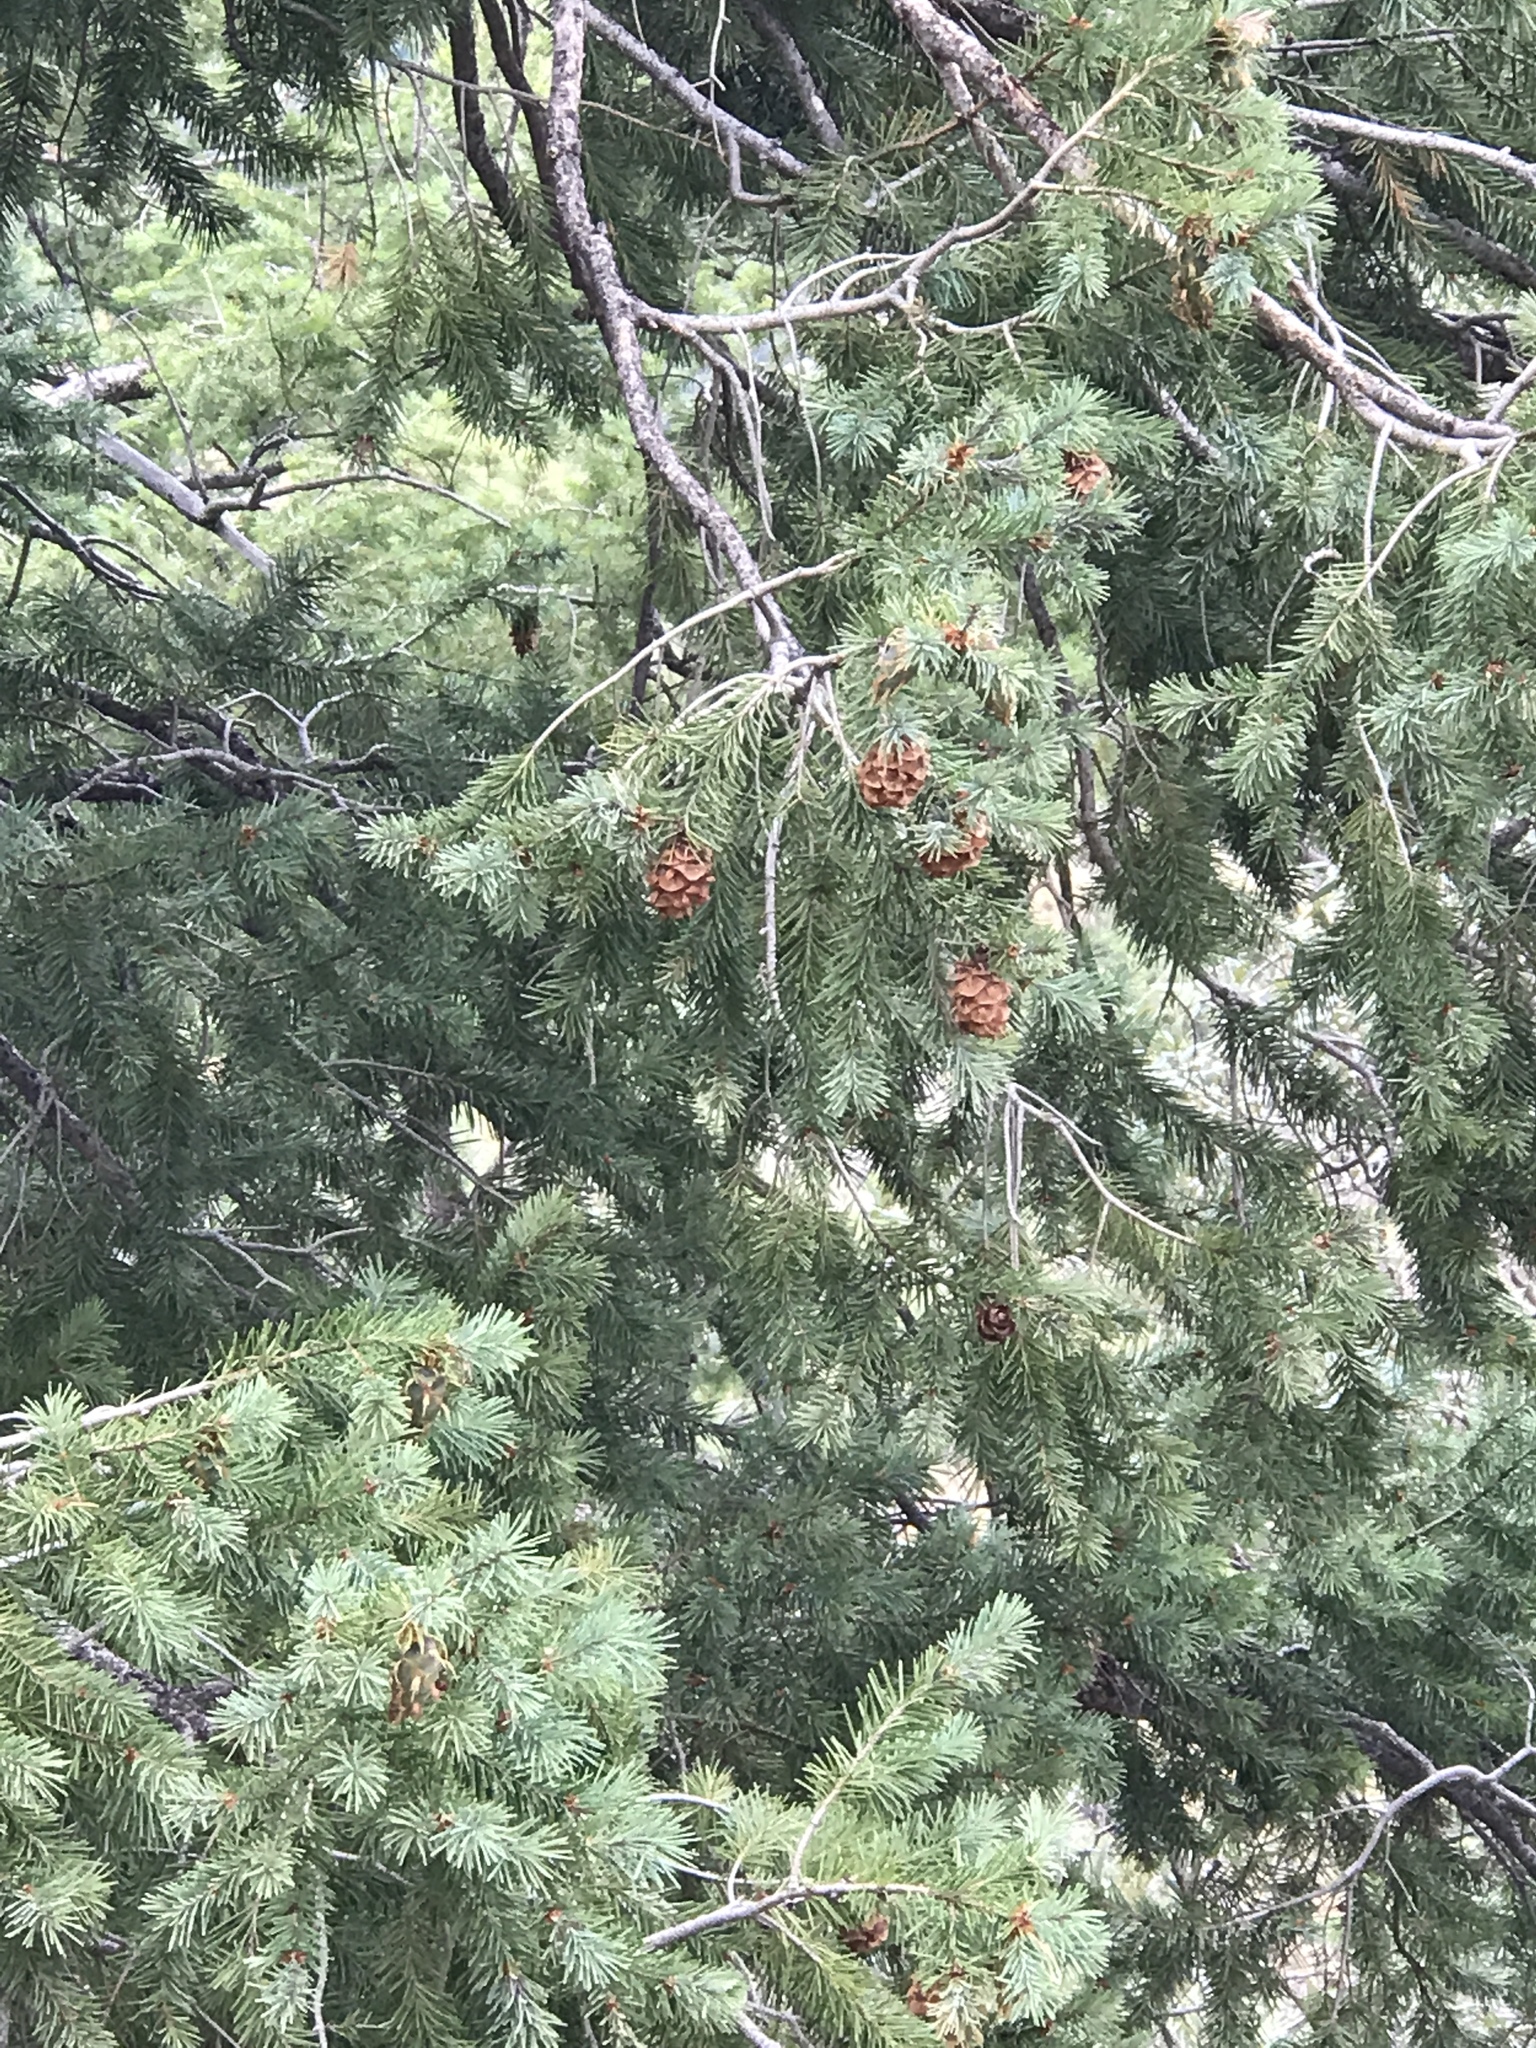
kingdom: Plantae
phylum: Tracheophyta
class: Pinopsida
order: Pinales
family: Pinaceae
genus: Pseudotsuga
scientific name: Pseudotsuga menziesii
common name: Douglas fir
